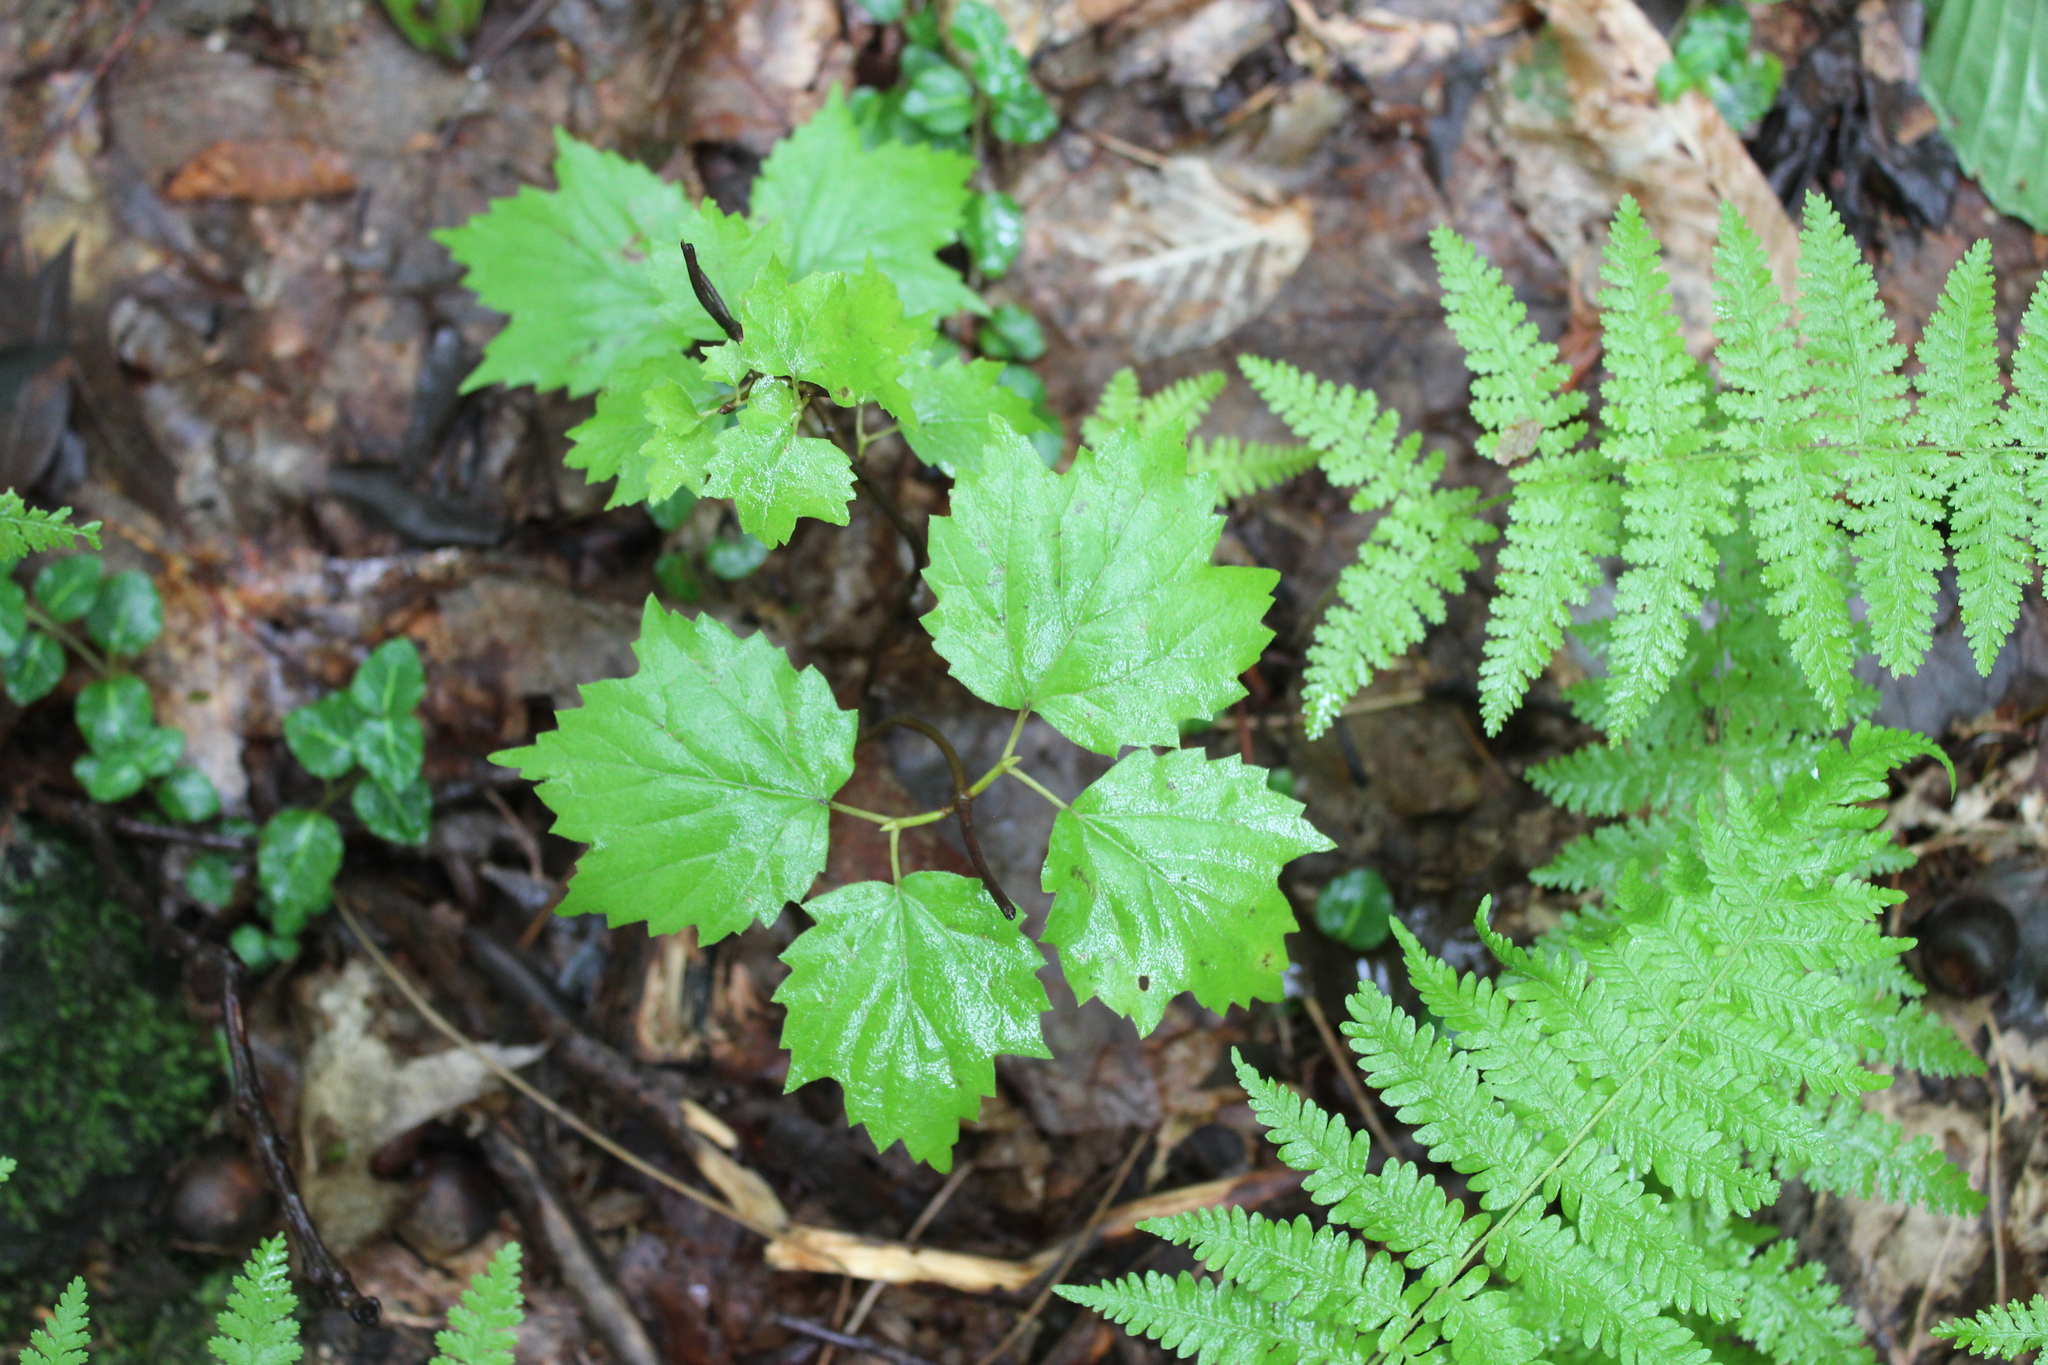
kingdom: Plantae
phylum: Tracheophyta
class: Magnoliopsida
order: Dipsacales
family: Viburnaceae
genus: Viburnum
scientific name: Viburnum acerifolium
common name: Dockmackie
